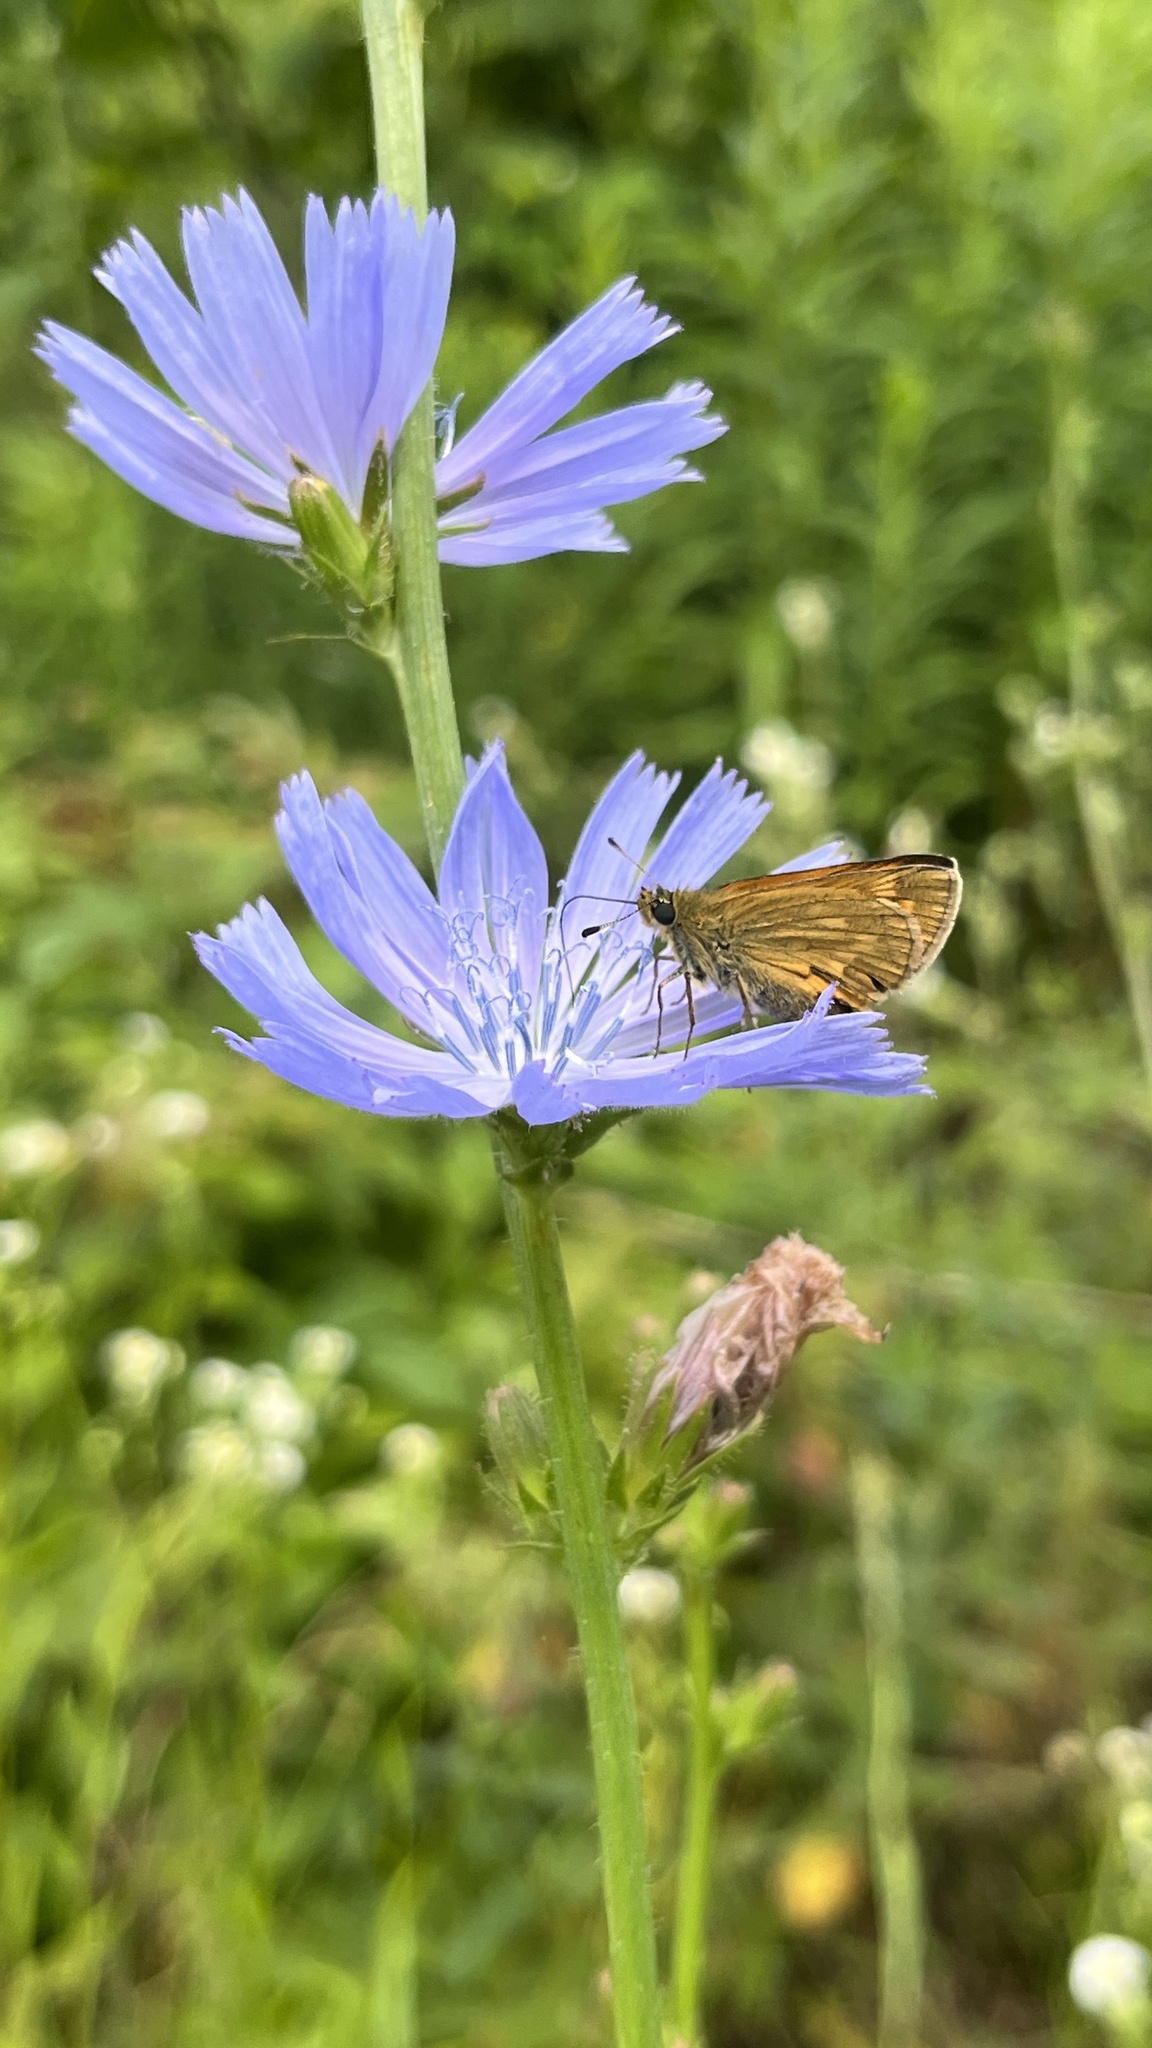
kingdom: Animalia
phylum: Arthropoda
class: Insecta
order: Lepidoptera
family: Hesperiidae
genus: Ochlodes
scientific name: Ochlodes venata
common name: Large skipper
